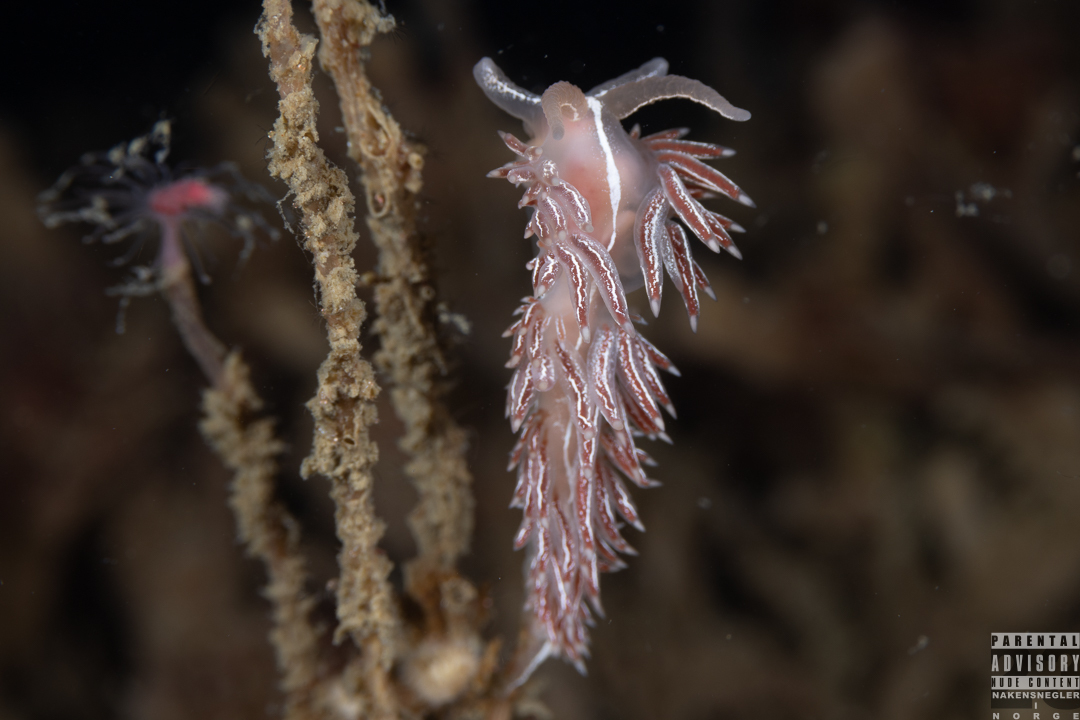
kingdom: Animalia
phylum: Mollusca
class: Gastropoda
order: Nudibranchia
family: Coryphellidae
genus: Coryphella
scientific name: Coryphella chriskaugei
